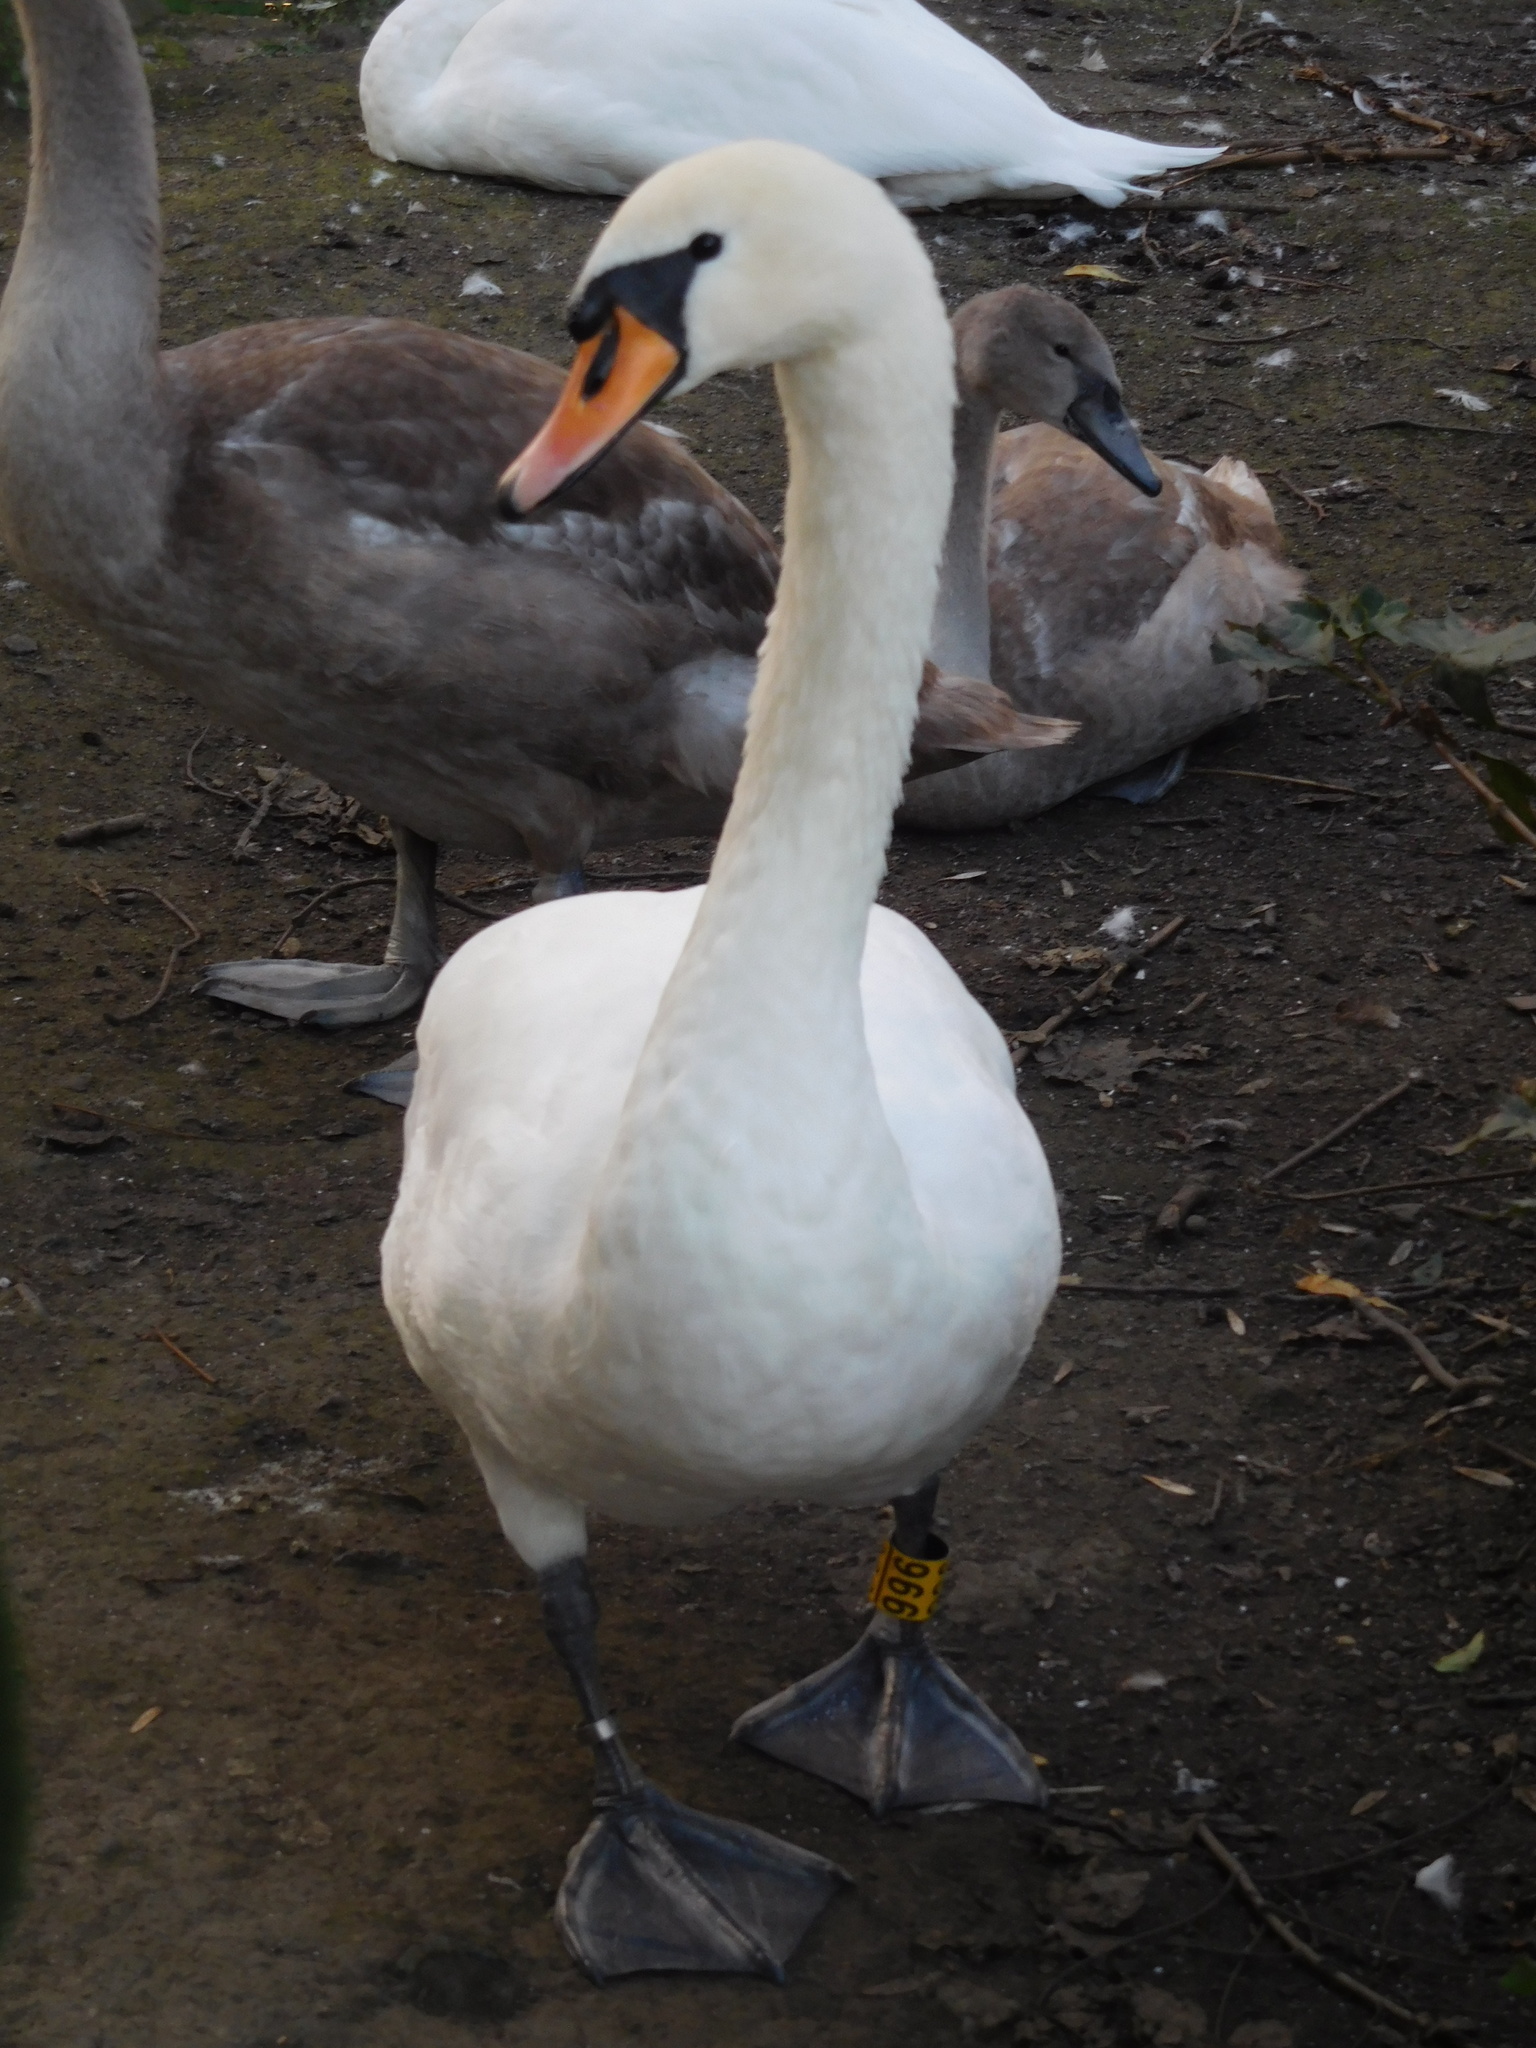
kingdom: Animalia
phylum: Chordata
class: Aves
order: Anseriformes
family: Anatidae
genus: Cygnus
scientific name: Cygnus olor
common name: Mute swan
